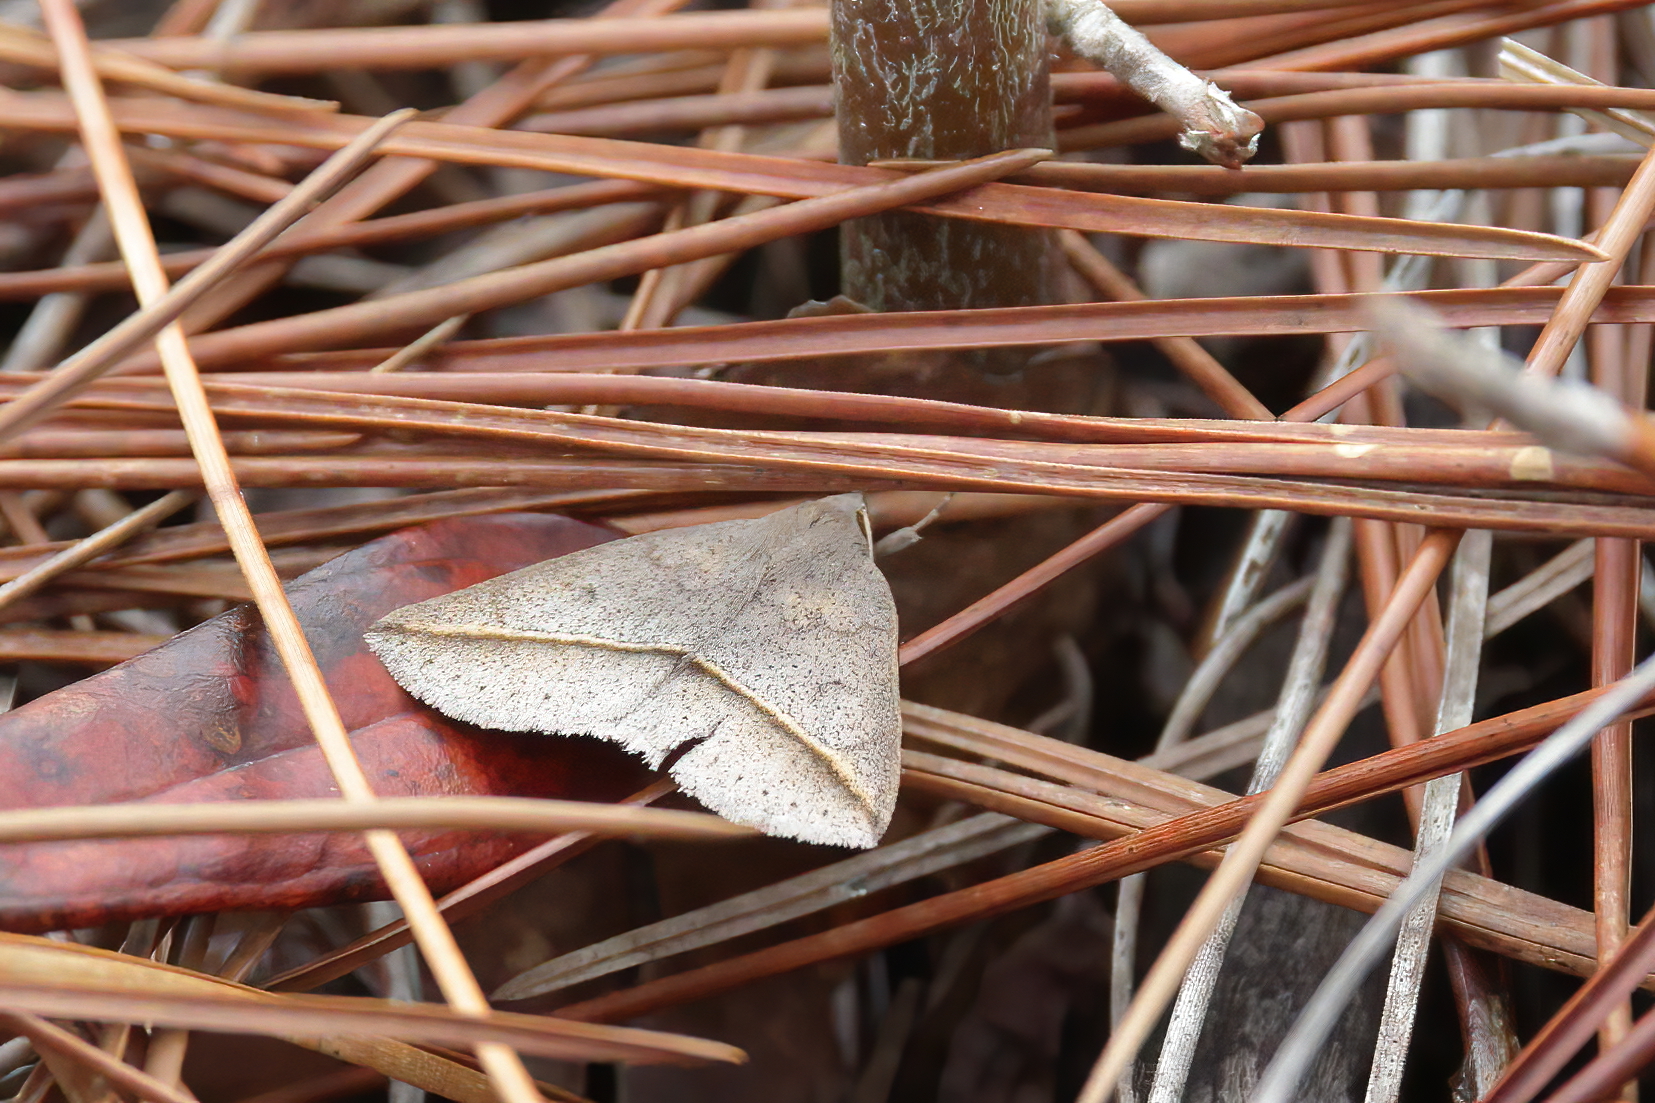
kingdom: Animalia
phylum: Arthropoda
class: Insecta
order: Lepidoptera
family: Erebidae
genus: Argyrostrotis
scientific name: Argyrostrotis flavistriaria
